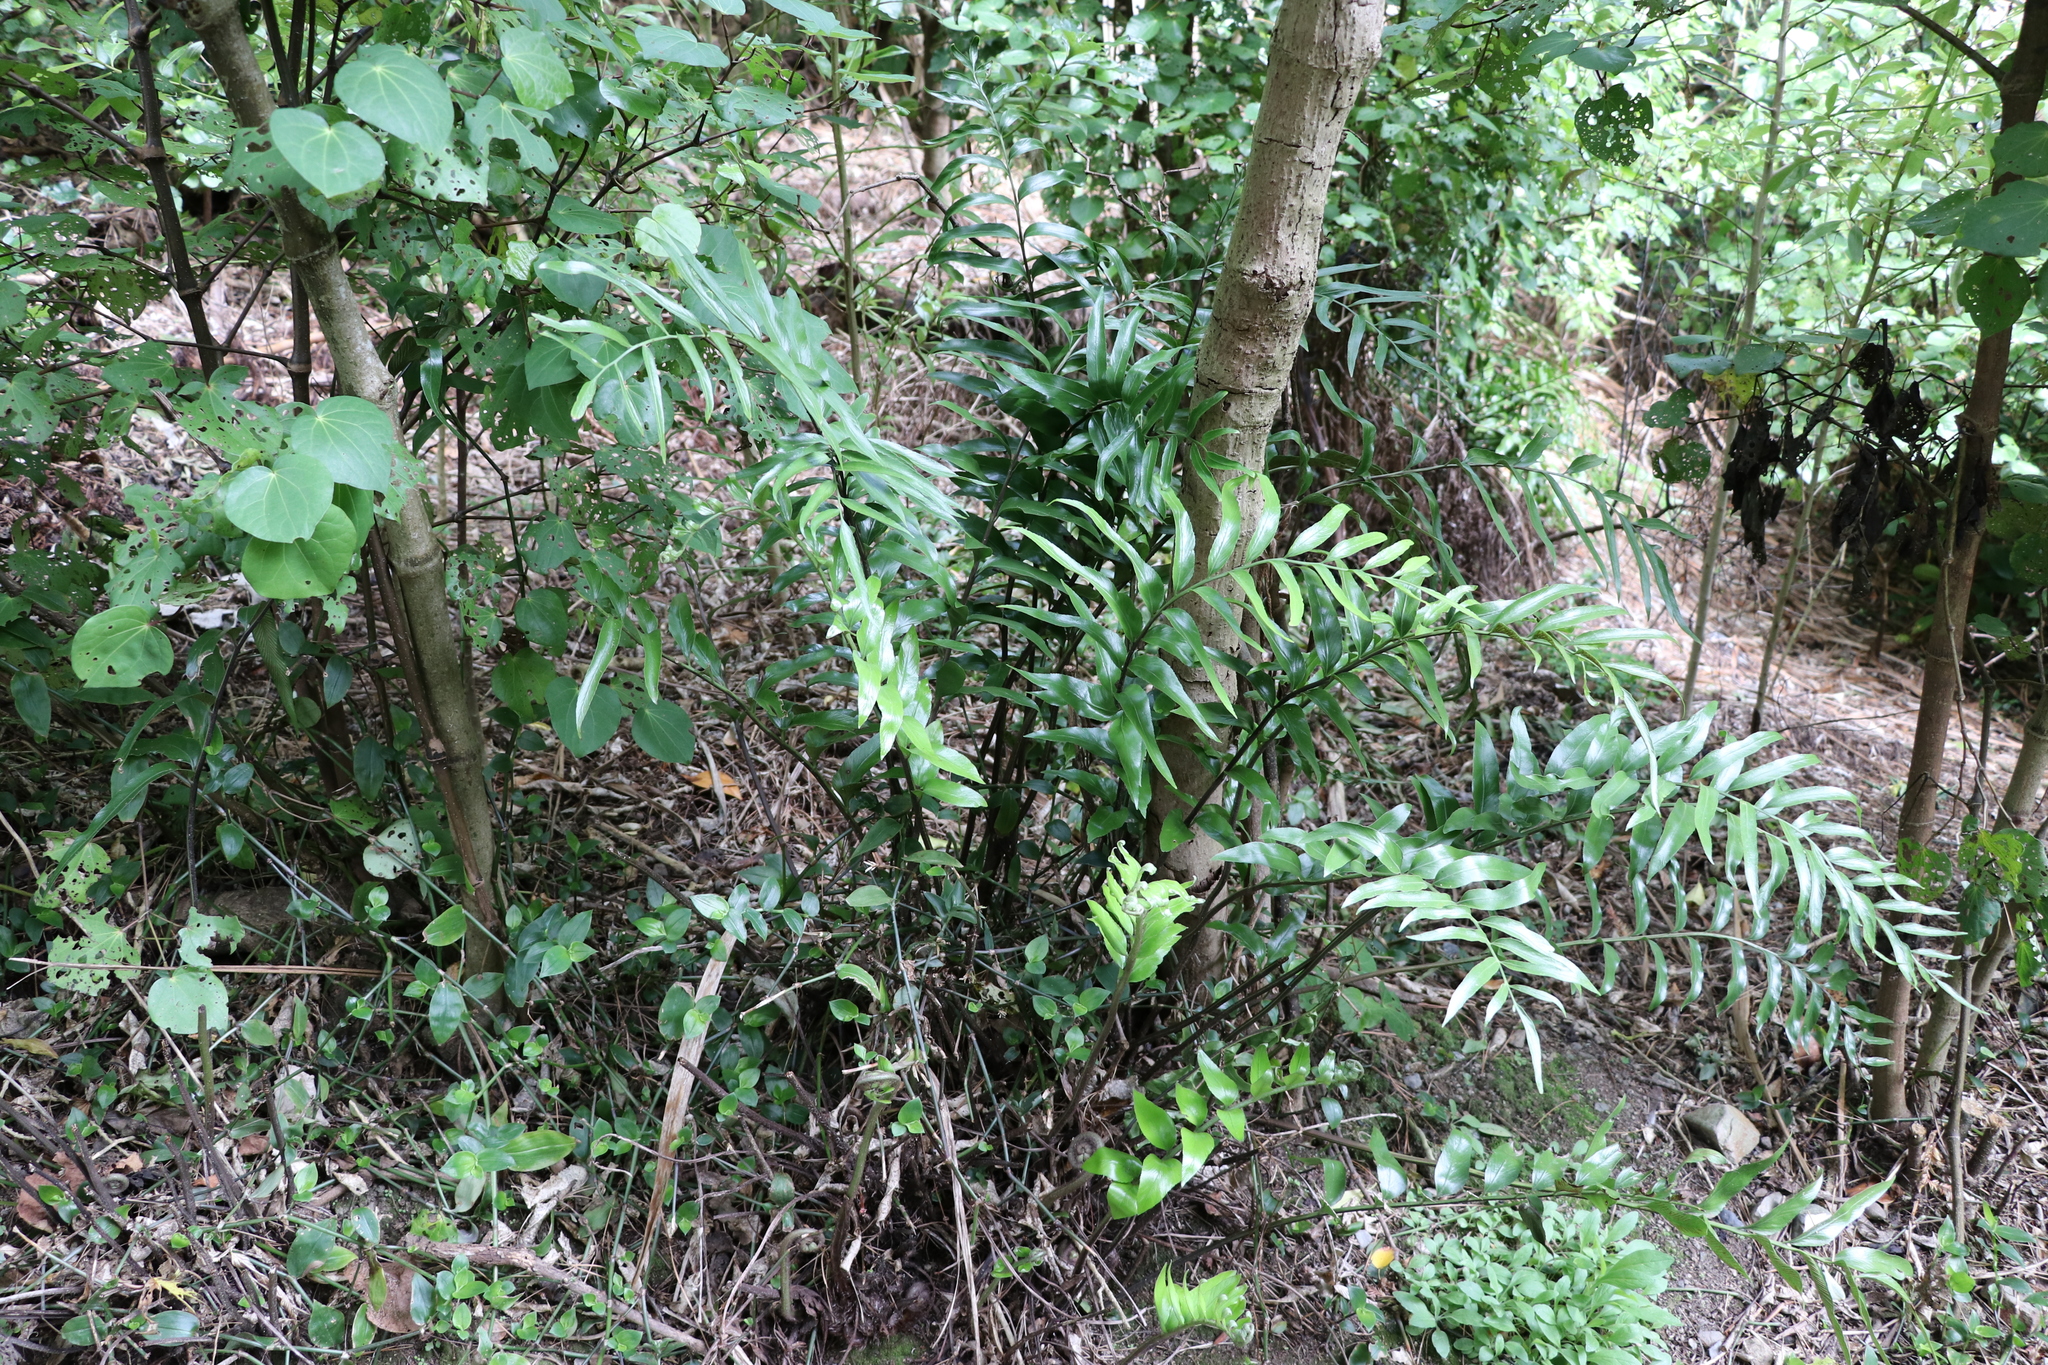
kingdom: Plantae
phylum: Tracheophyta
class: Polypodiopsida
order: Polypodiales
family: Aspleniaceae
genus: Asplenium
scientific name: Asplenium oblongifolium
